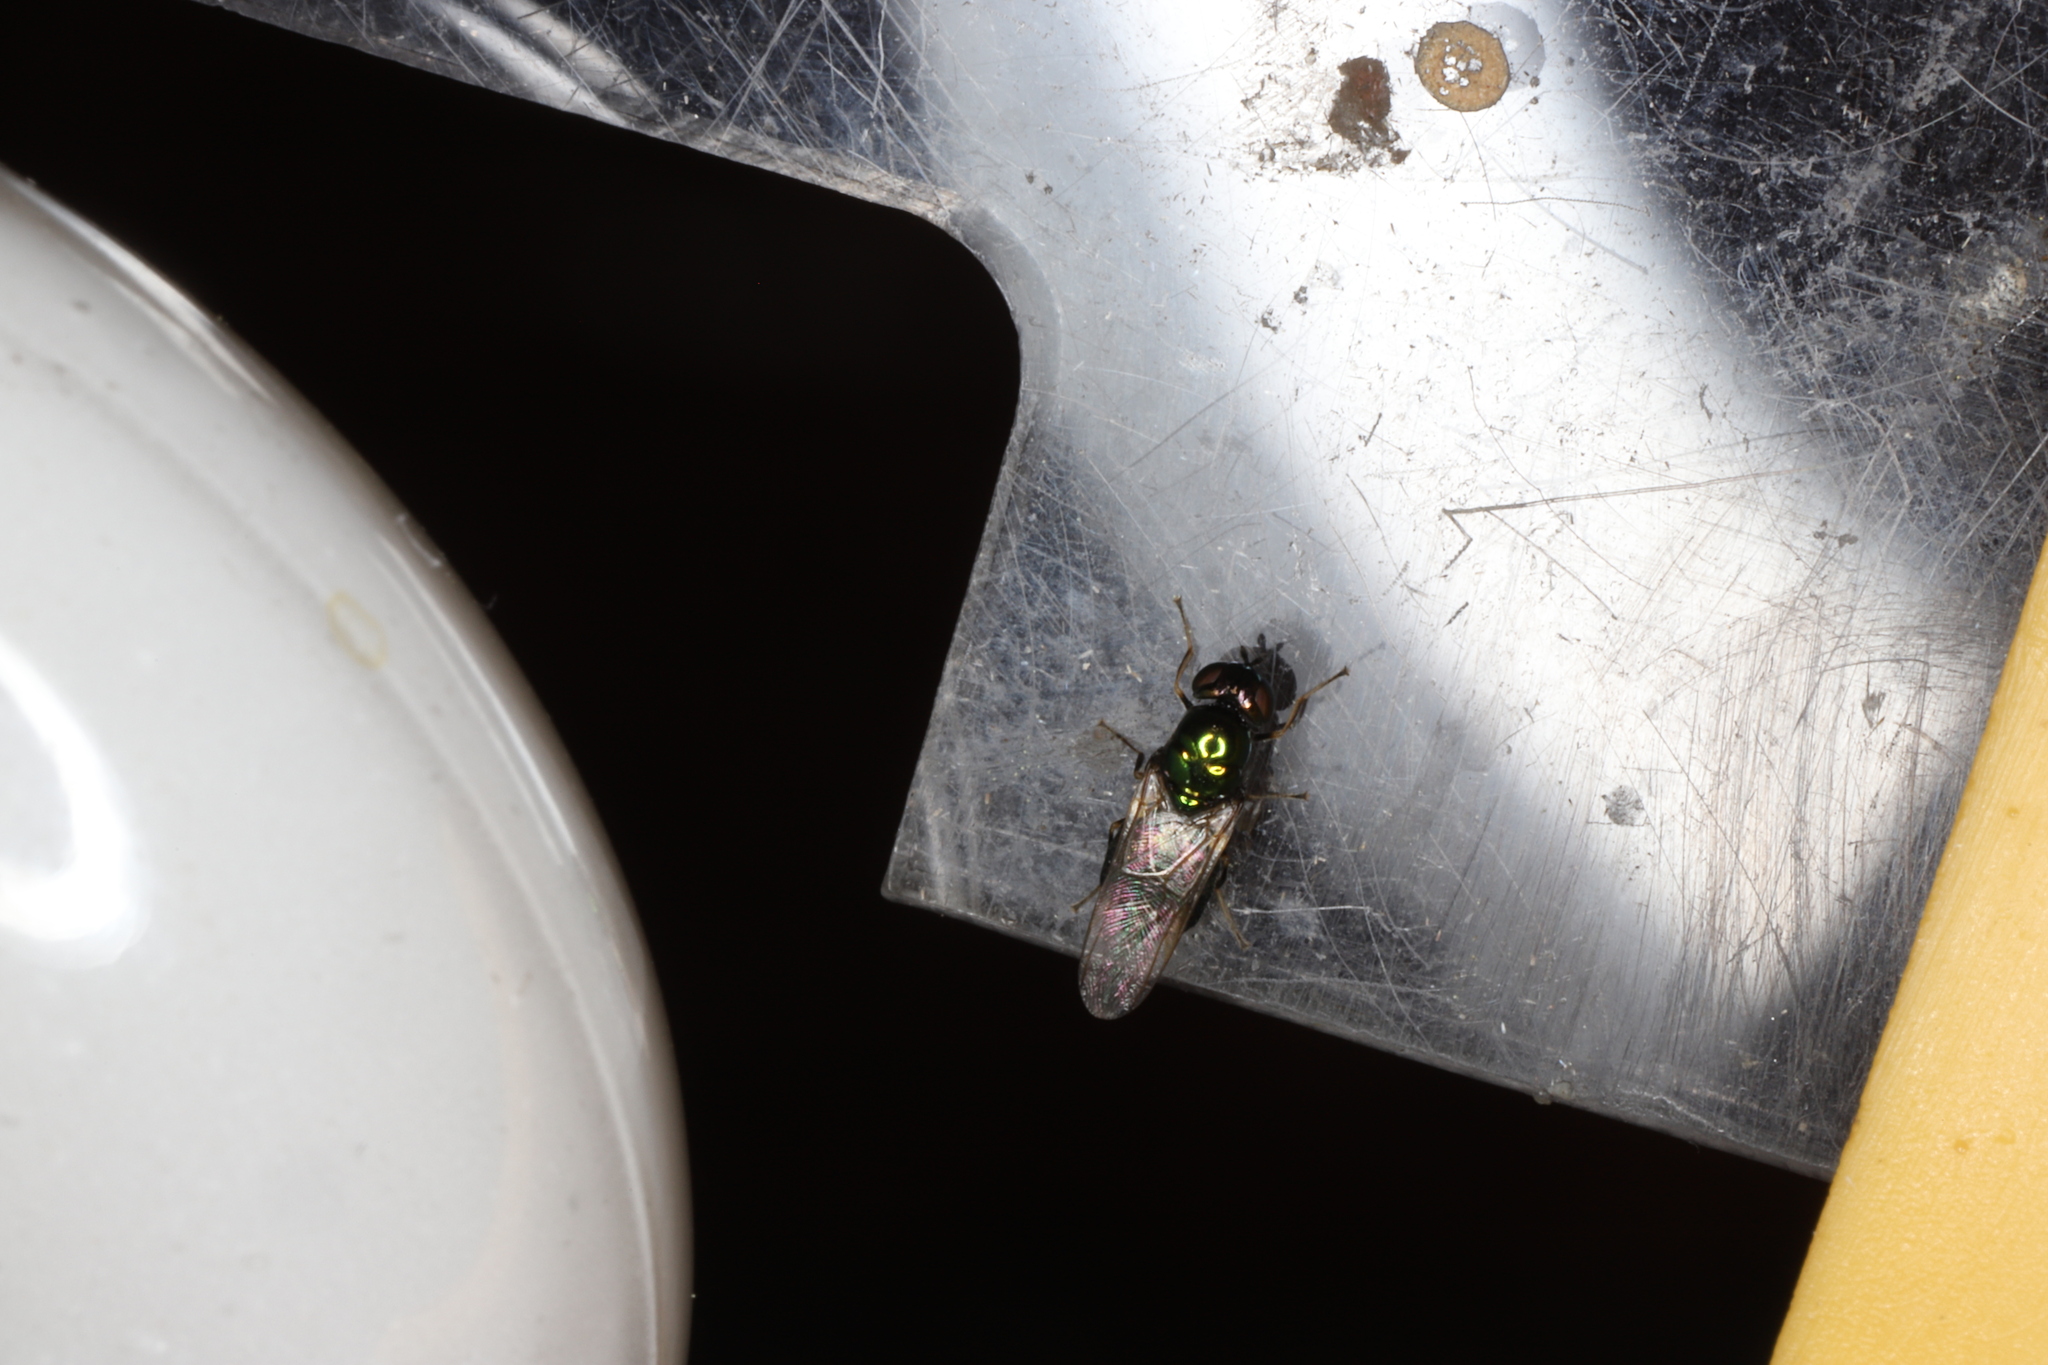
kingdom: Animalia
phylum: Arthropoda
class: Insecta
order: Diptera
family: Stratiomyidae
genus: Microchrysa
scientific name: Microchrysa polita
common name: Black-horned gem
